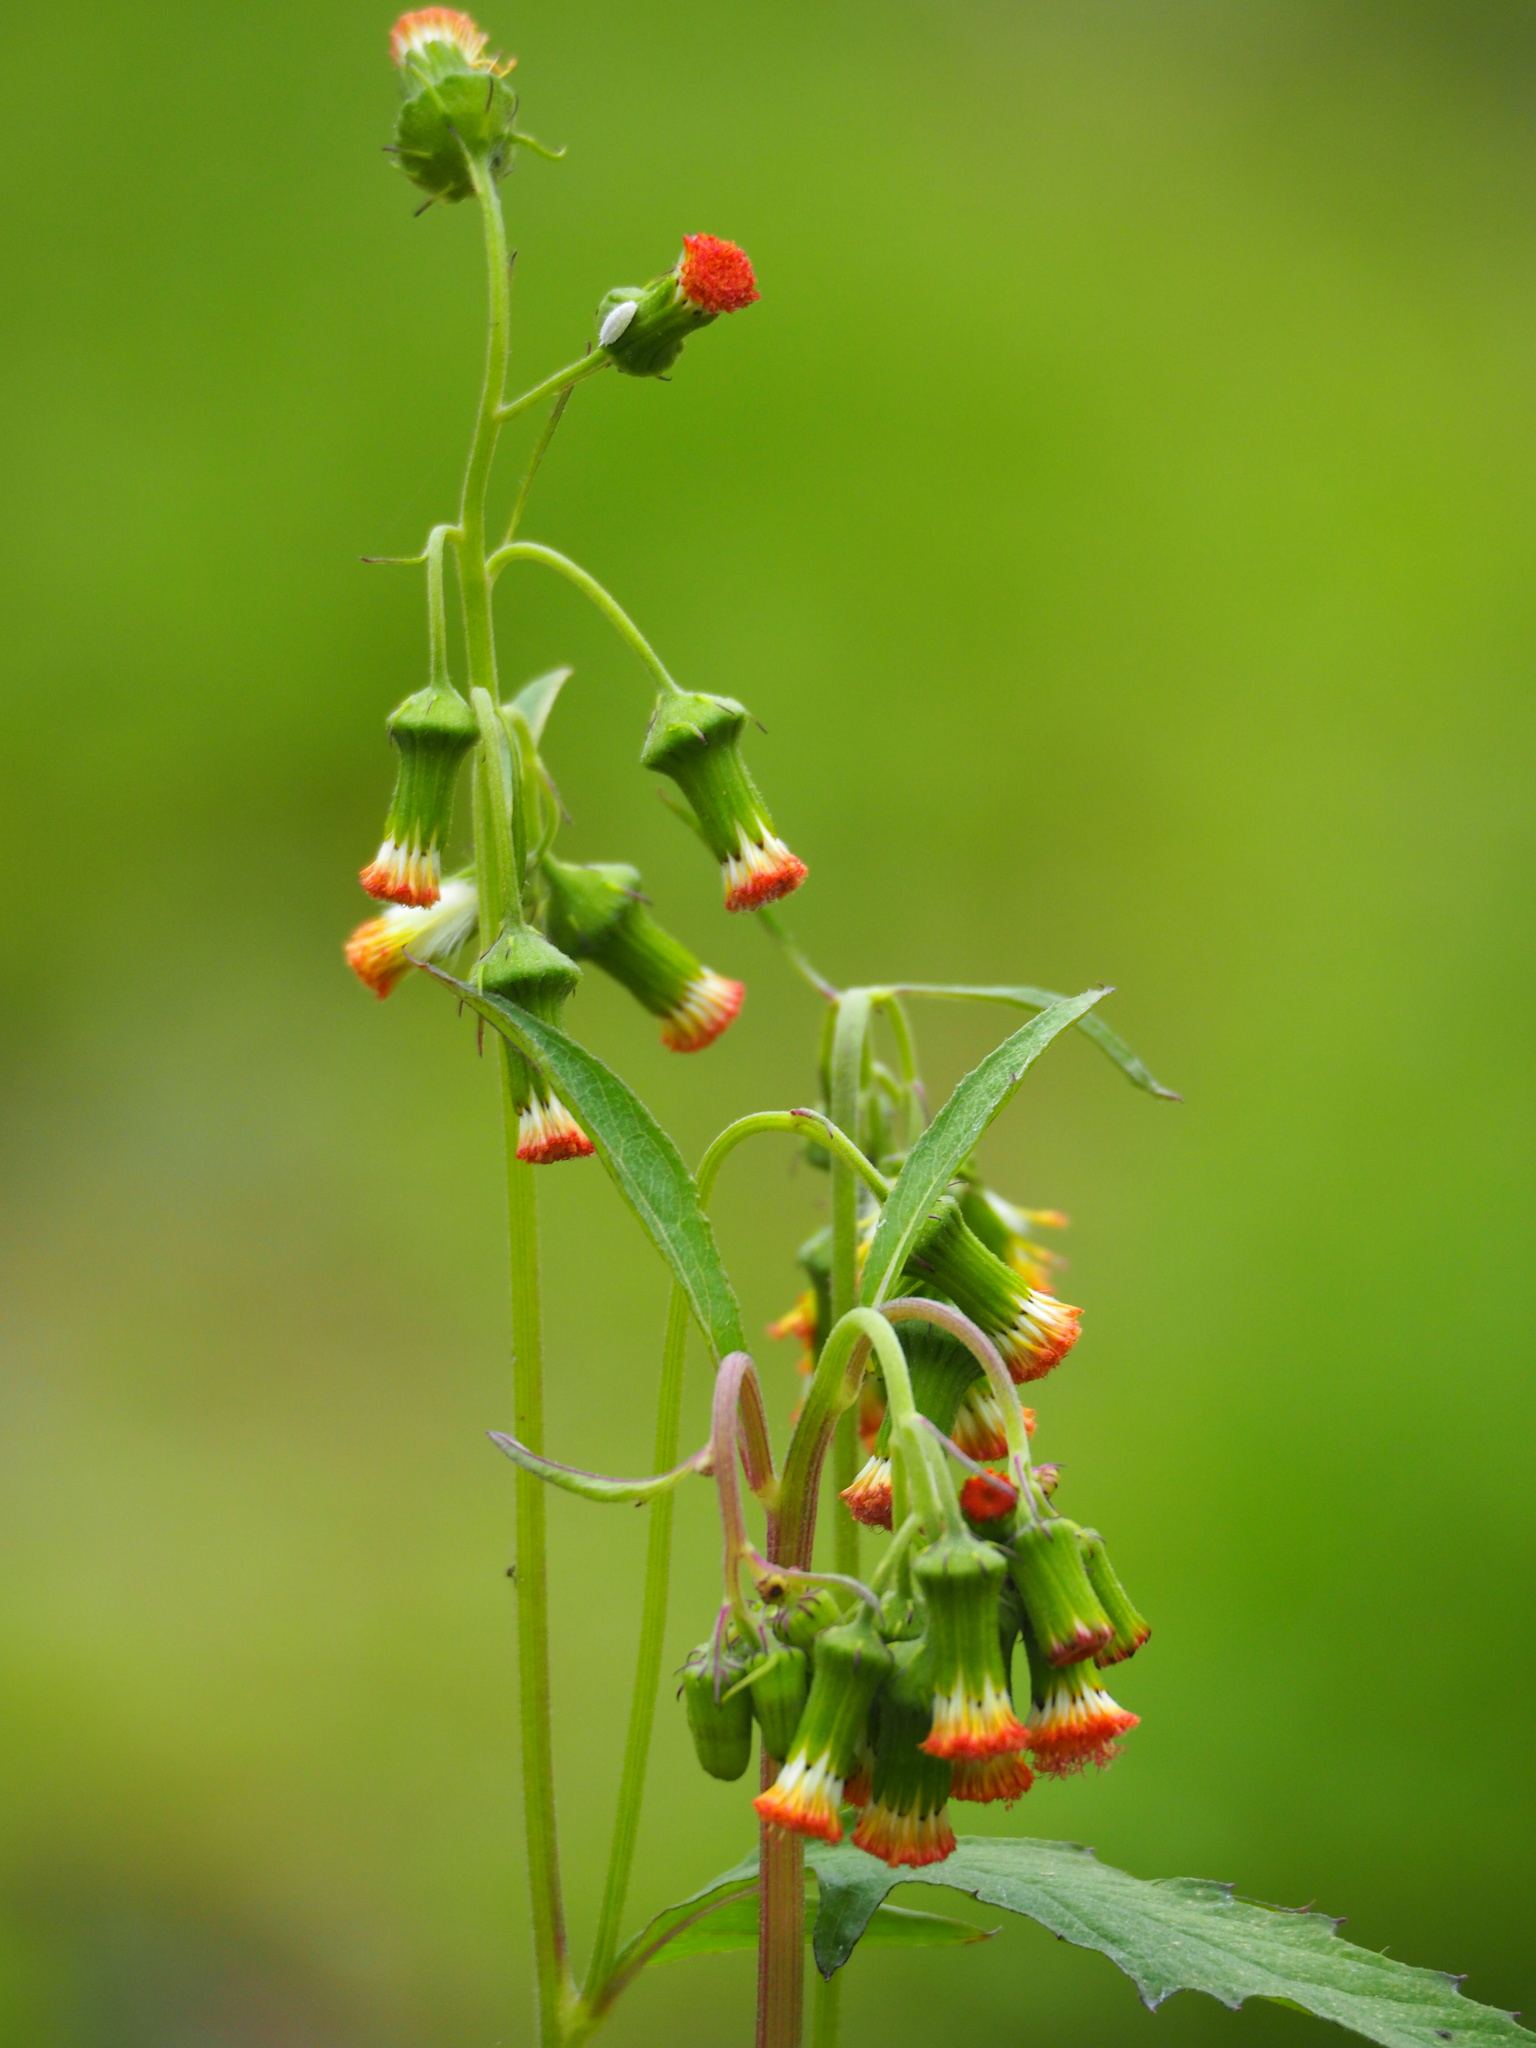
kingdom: Plantae
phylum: Tracheophyta
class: Magnoliopsida
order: Asterales
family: Asteraceae
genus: Crassocephalum
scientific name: Crassocephalum crepidioides
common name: Redflower ragleaf
